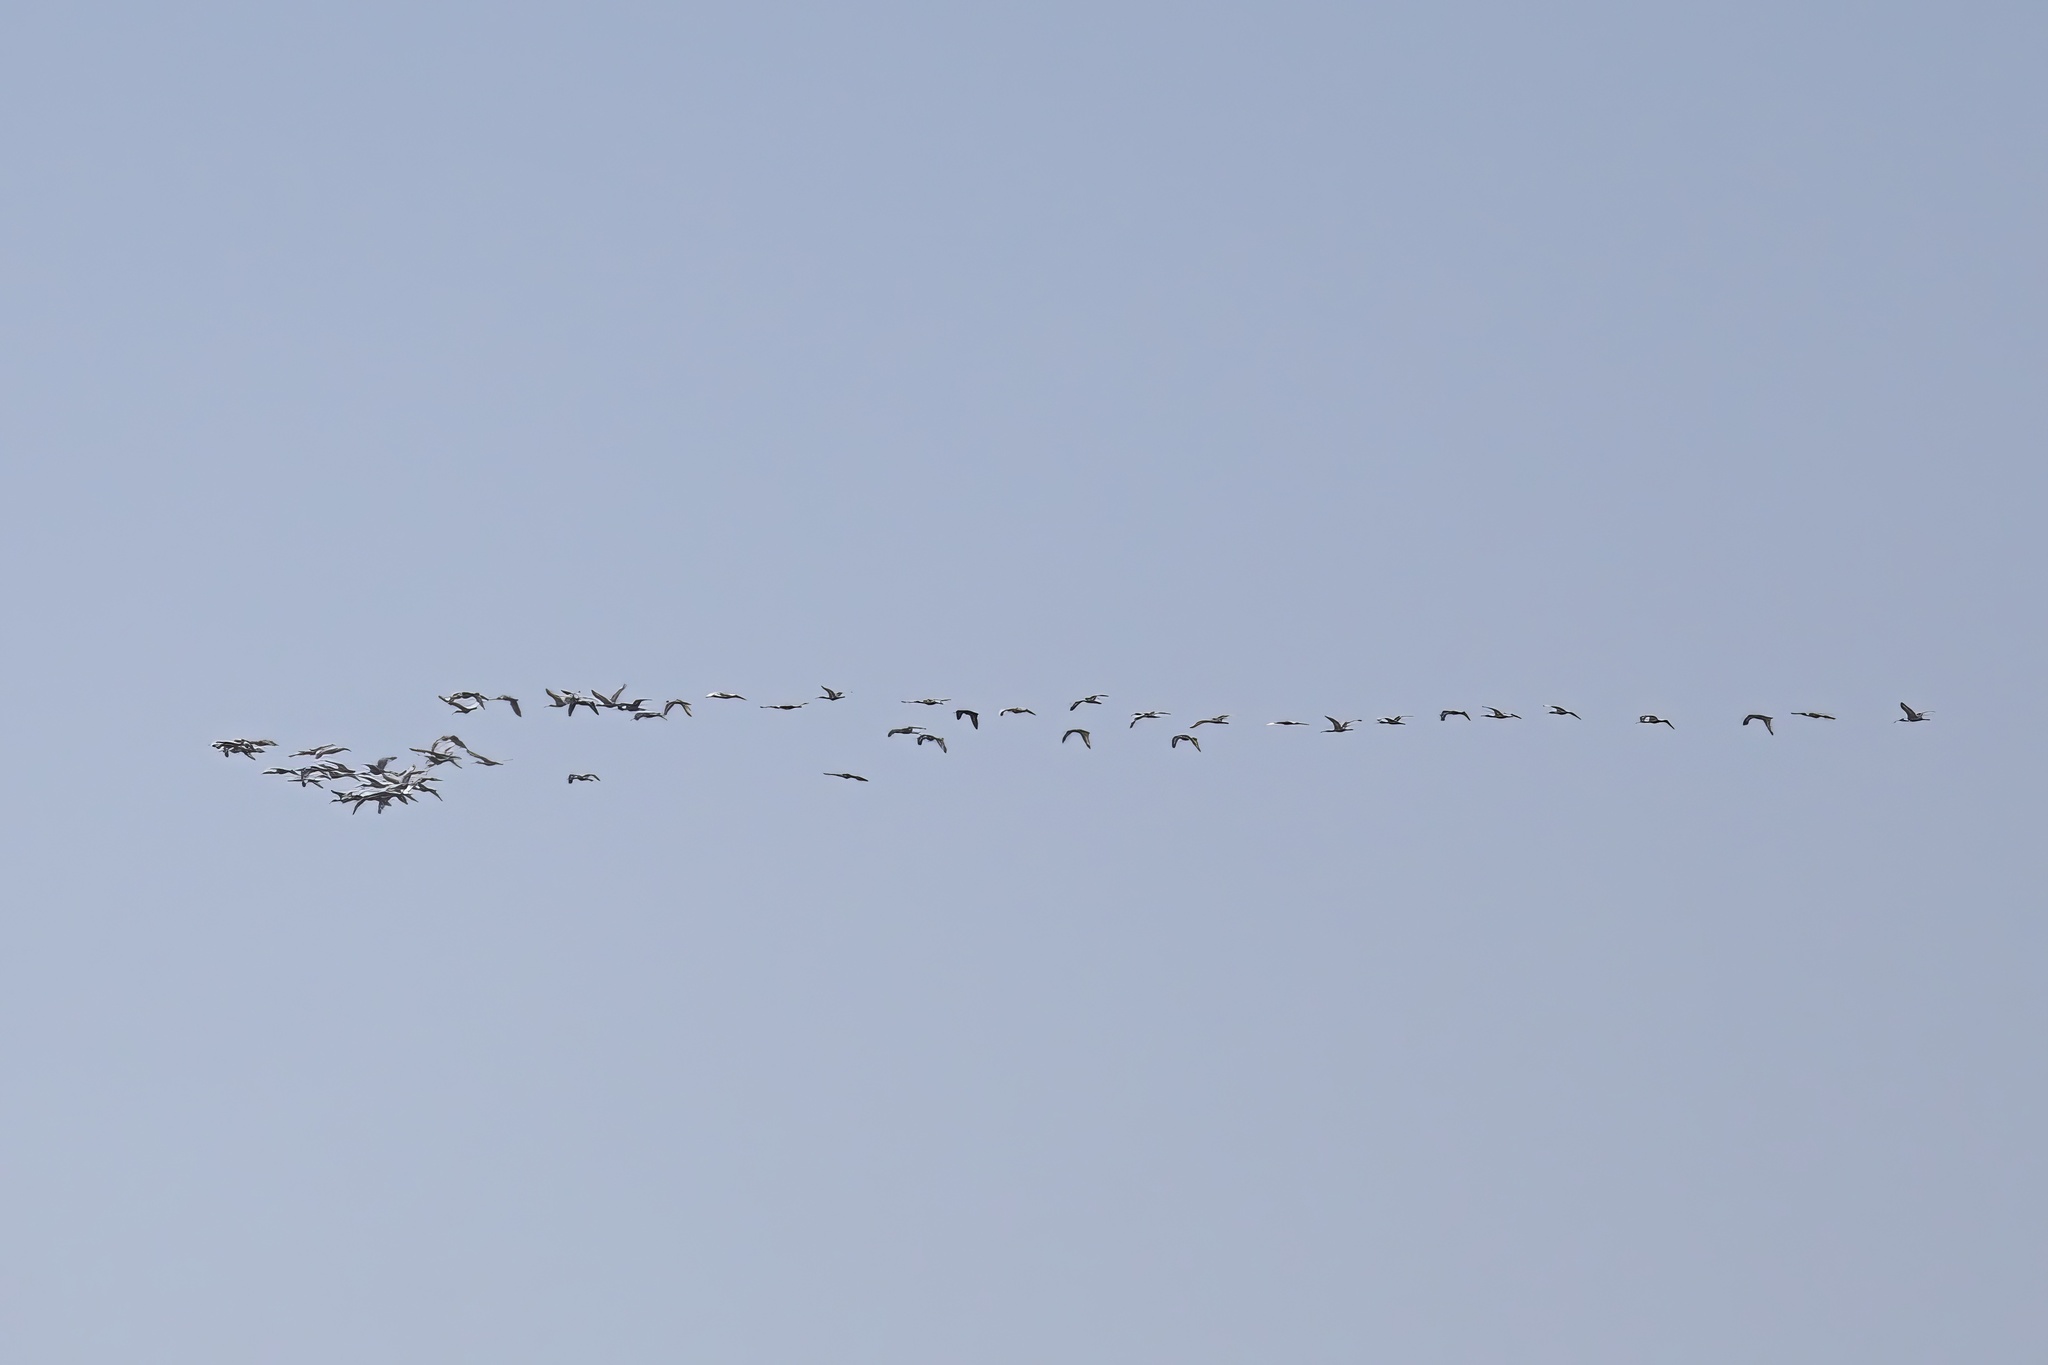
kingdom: Animalia
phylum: Chordata
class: Aves
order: Pelecaniformes
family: Threskiornithidae
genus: Eudocimus
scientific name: Eudocimus albus
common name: White ibis
